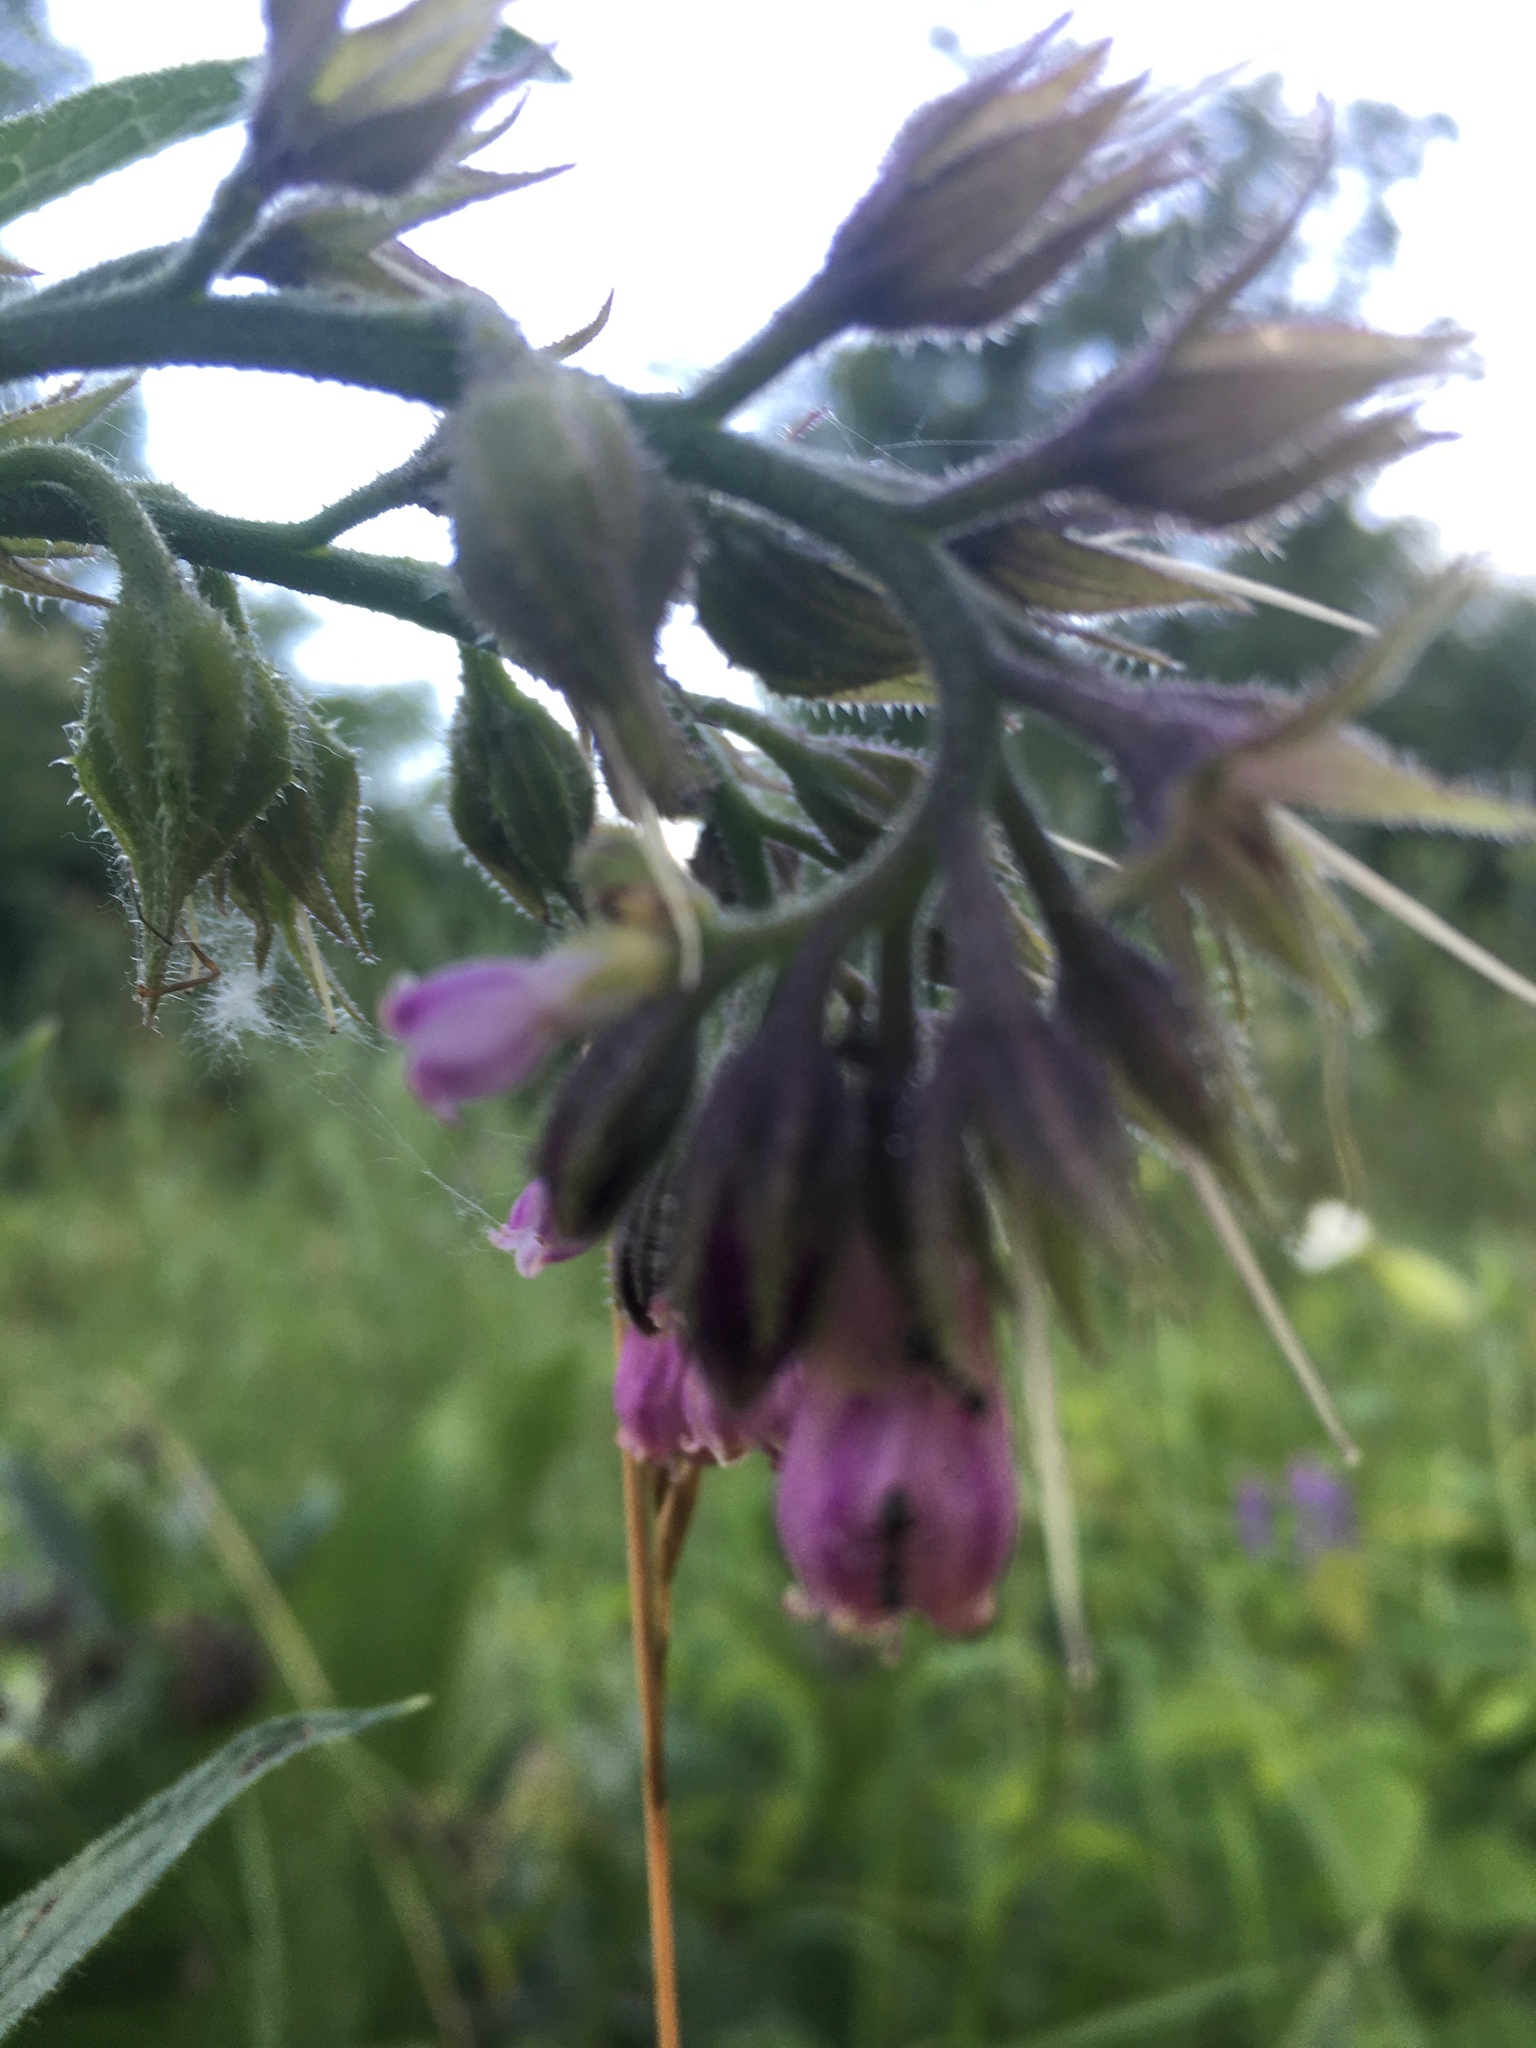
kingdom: Plantae
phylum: Tracheophyta
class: Magnoliopsida
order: Boraginales
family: Boraginaceae
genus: Symphytum
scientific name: Symphytum officinale
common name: Common comfrey
